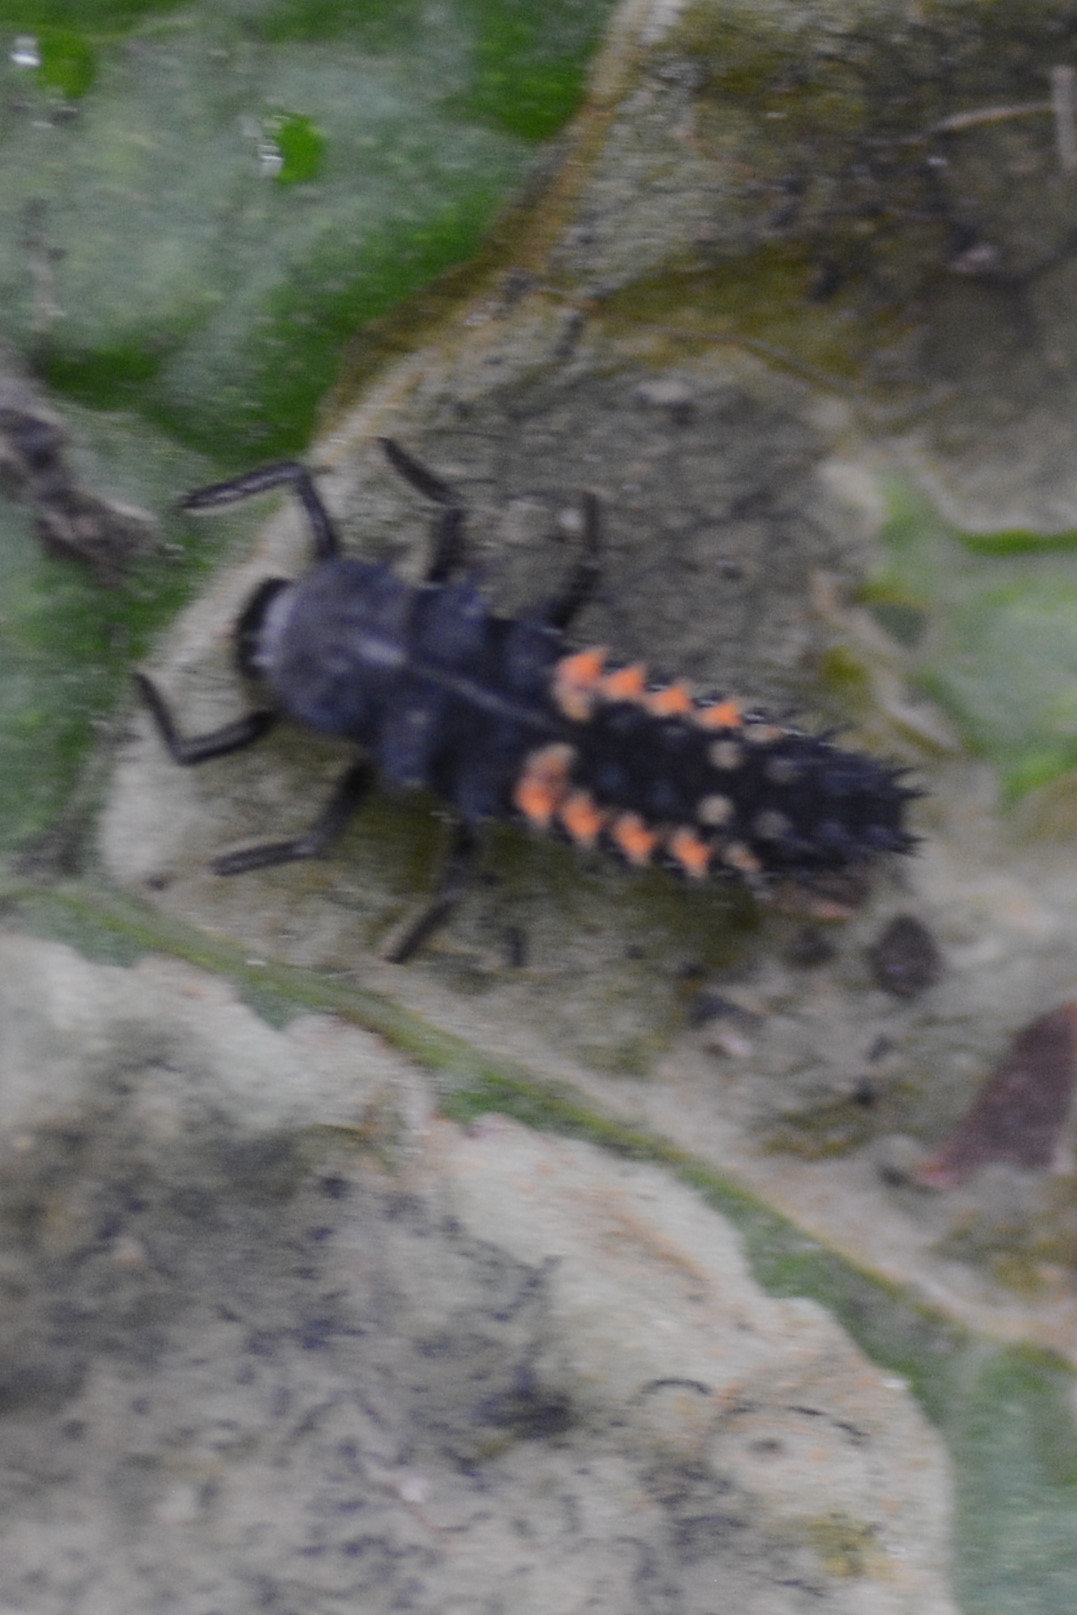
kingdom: Animalia
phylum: Arthropoda
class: Insecta
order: Coleoptera
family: Coccinellidae
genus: Harmonia
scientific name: Harmonia axyridis
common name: Harlequin ladybird
